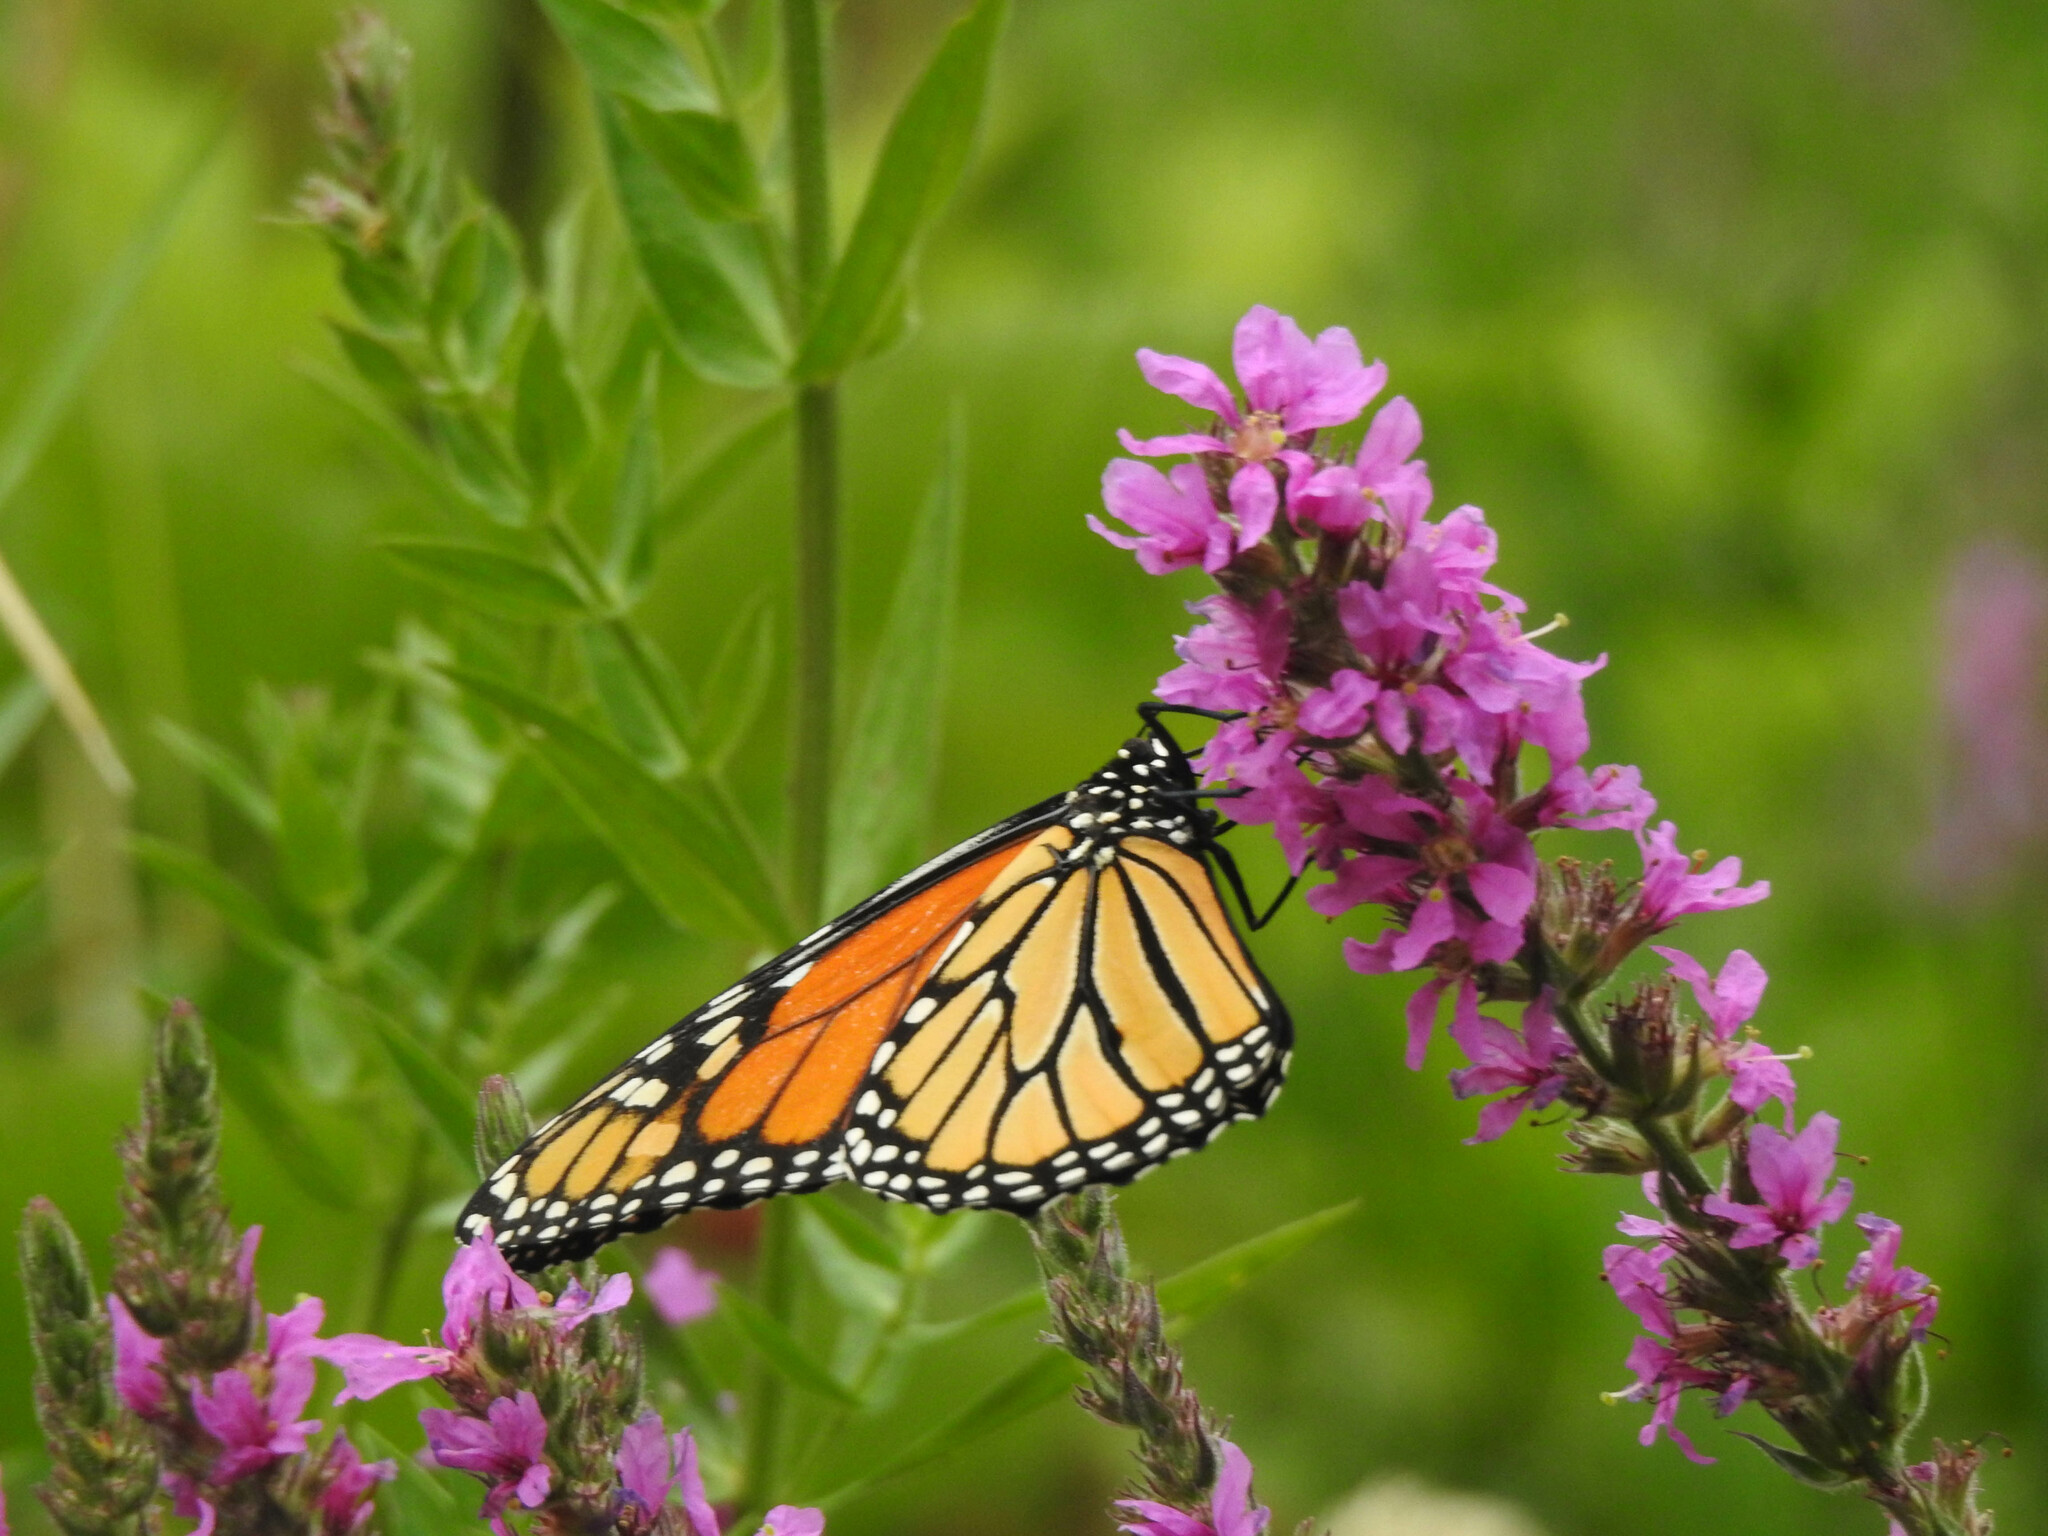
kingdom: Animalia
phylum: Arthropoda
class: Insecta
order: Lepidoptera
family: Nymphalidae
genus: Danaus
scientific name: Danaus plexippus
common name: Monarch
